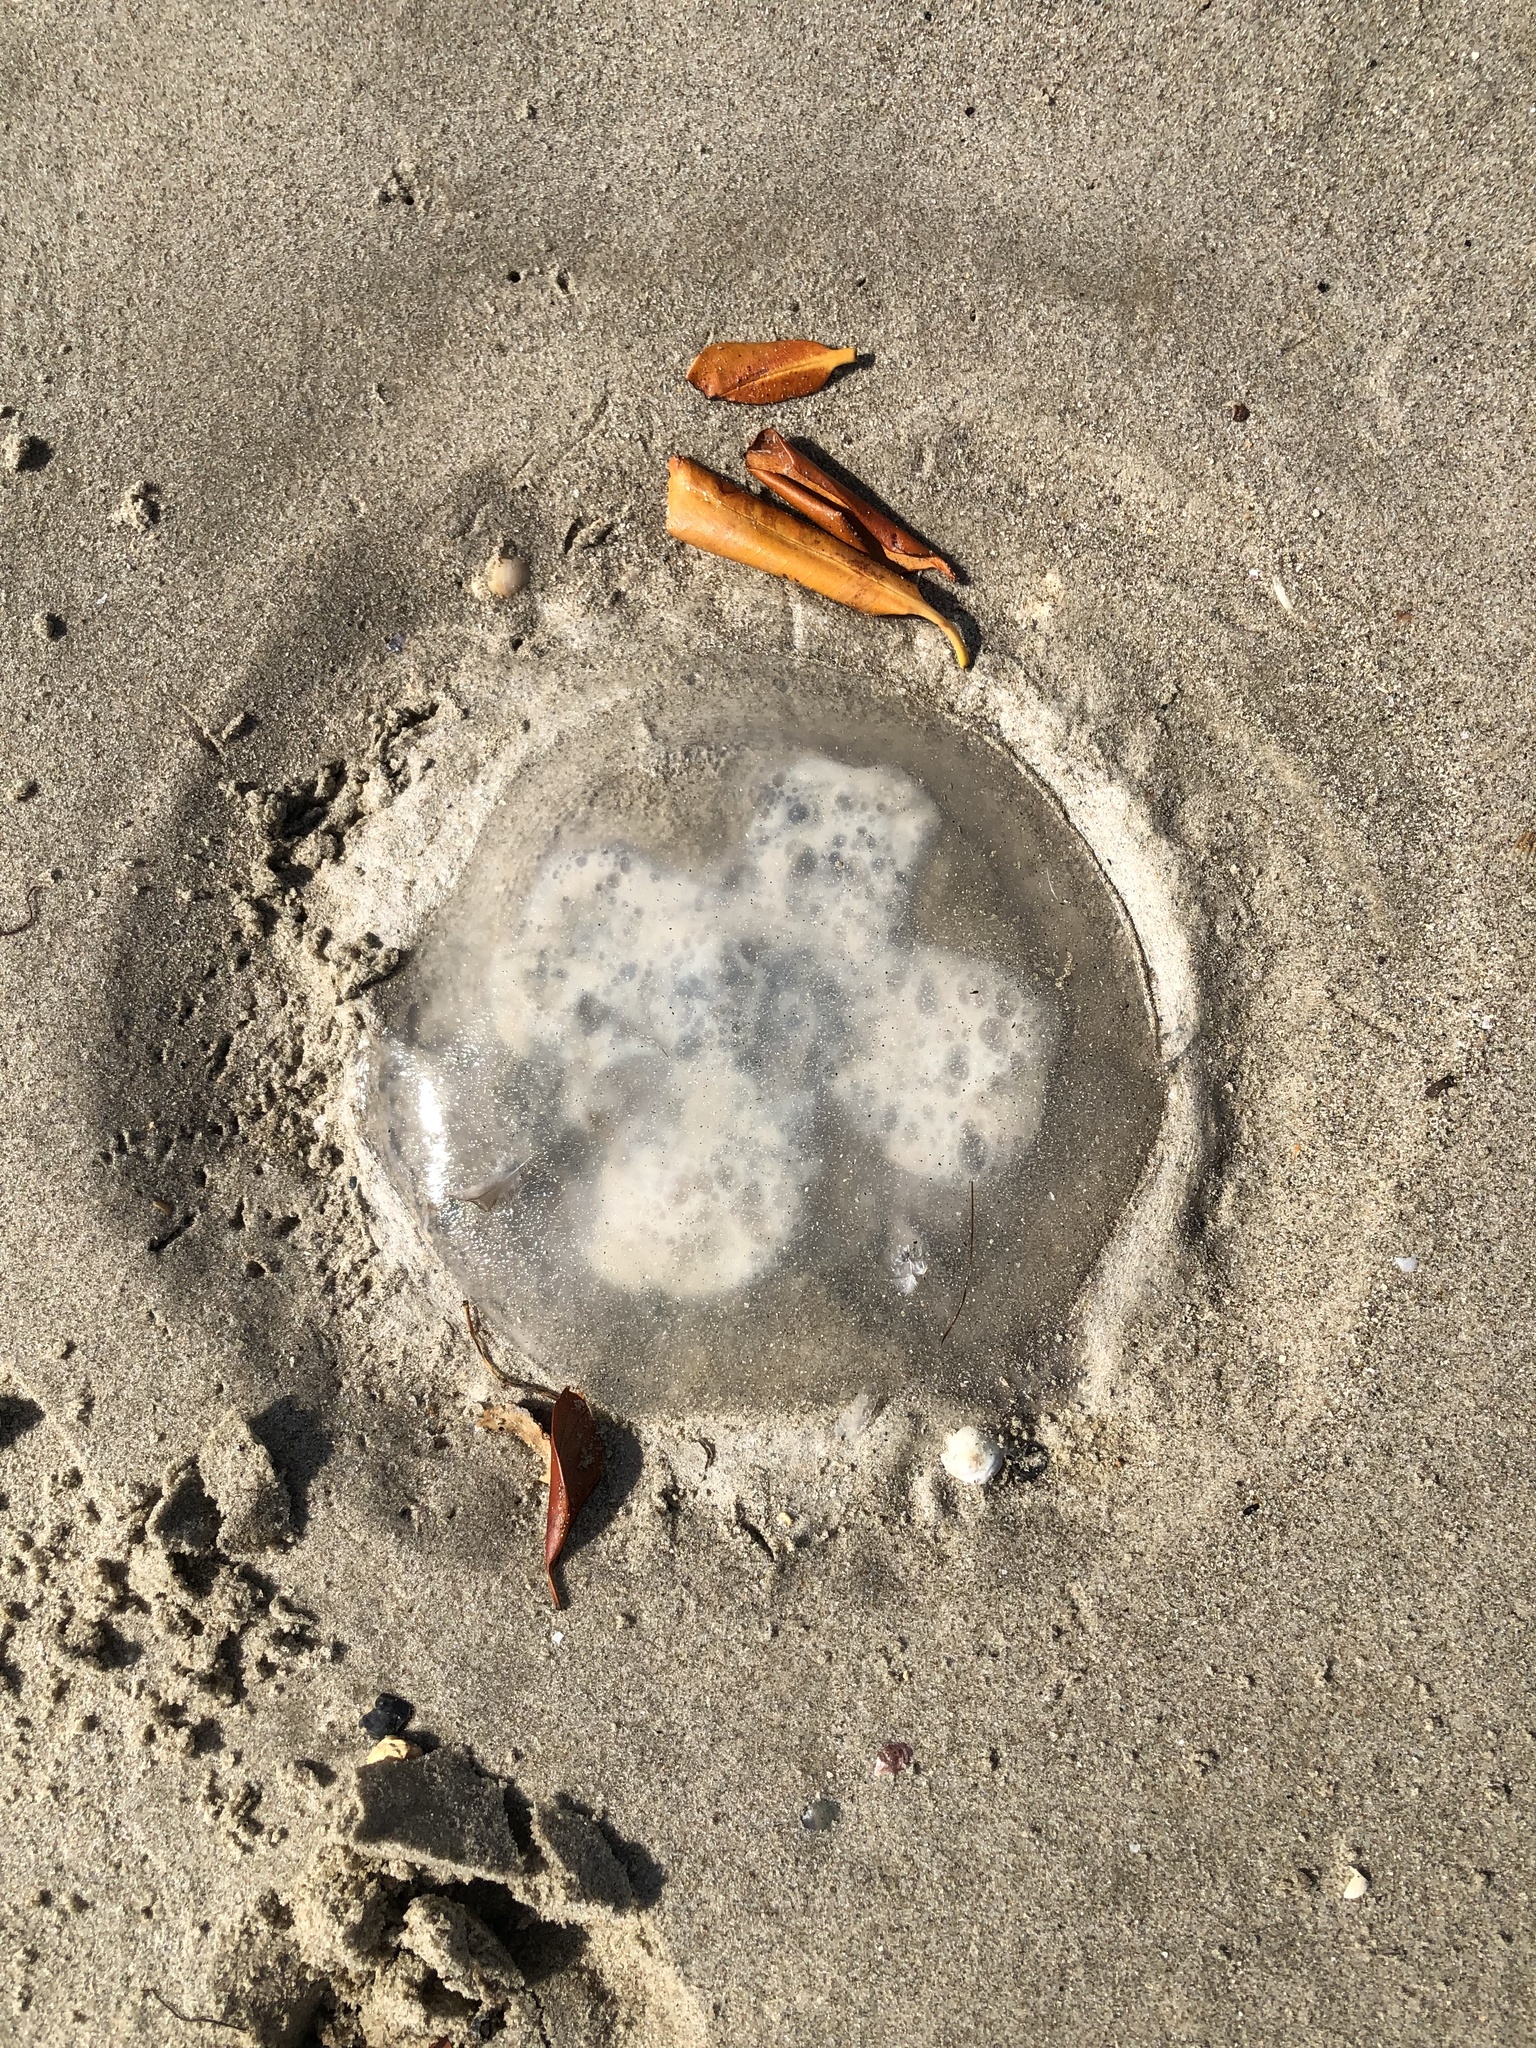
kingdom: Animalia
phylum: Cnidaria
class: Scyphozoa
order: Rhizostomeae
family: Lychnorhizidae
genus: Lychnorhiza
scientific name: Lychnorhiza lucerna
